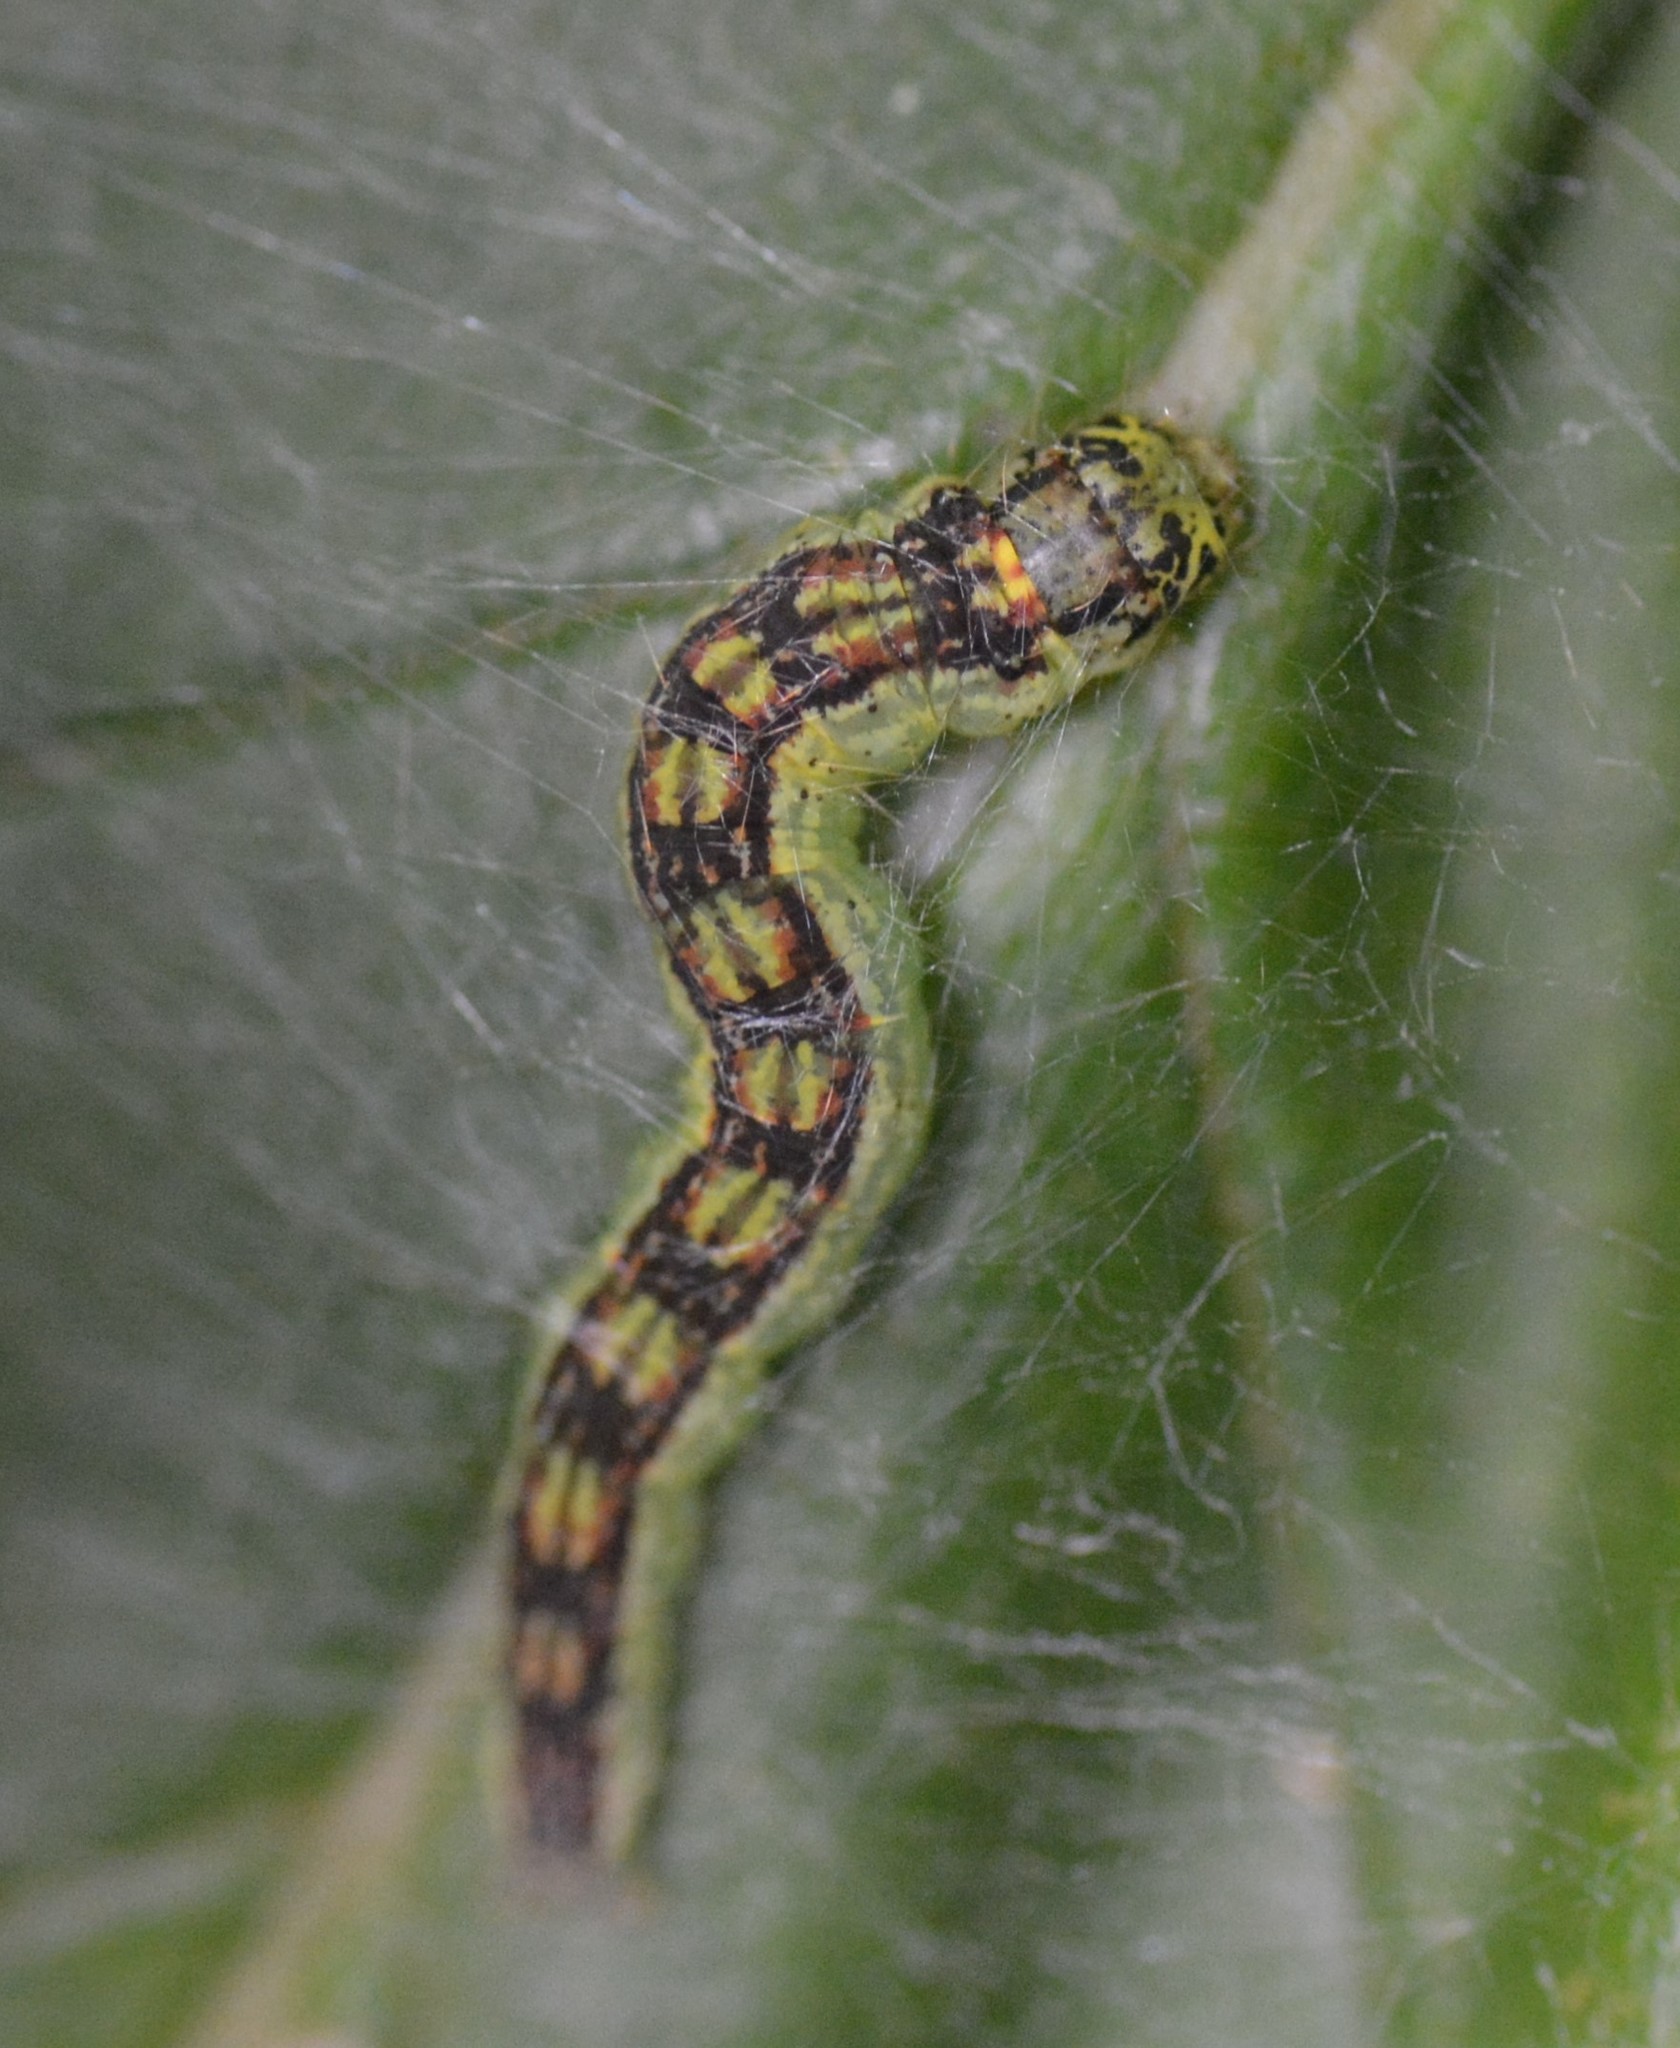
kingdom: Animalia
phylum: Arthropoda
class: Insecta
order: Lepidoptera
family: Pyralidae
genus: Oreana
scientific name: Oreana unicolorella
